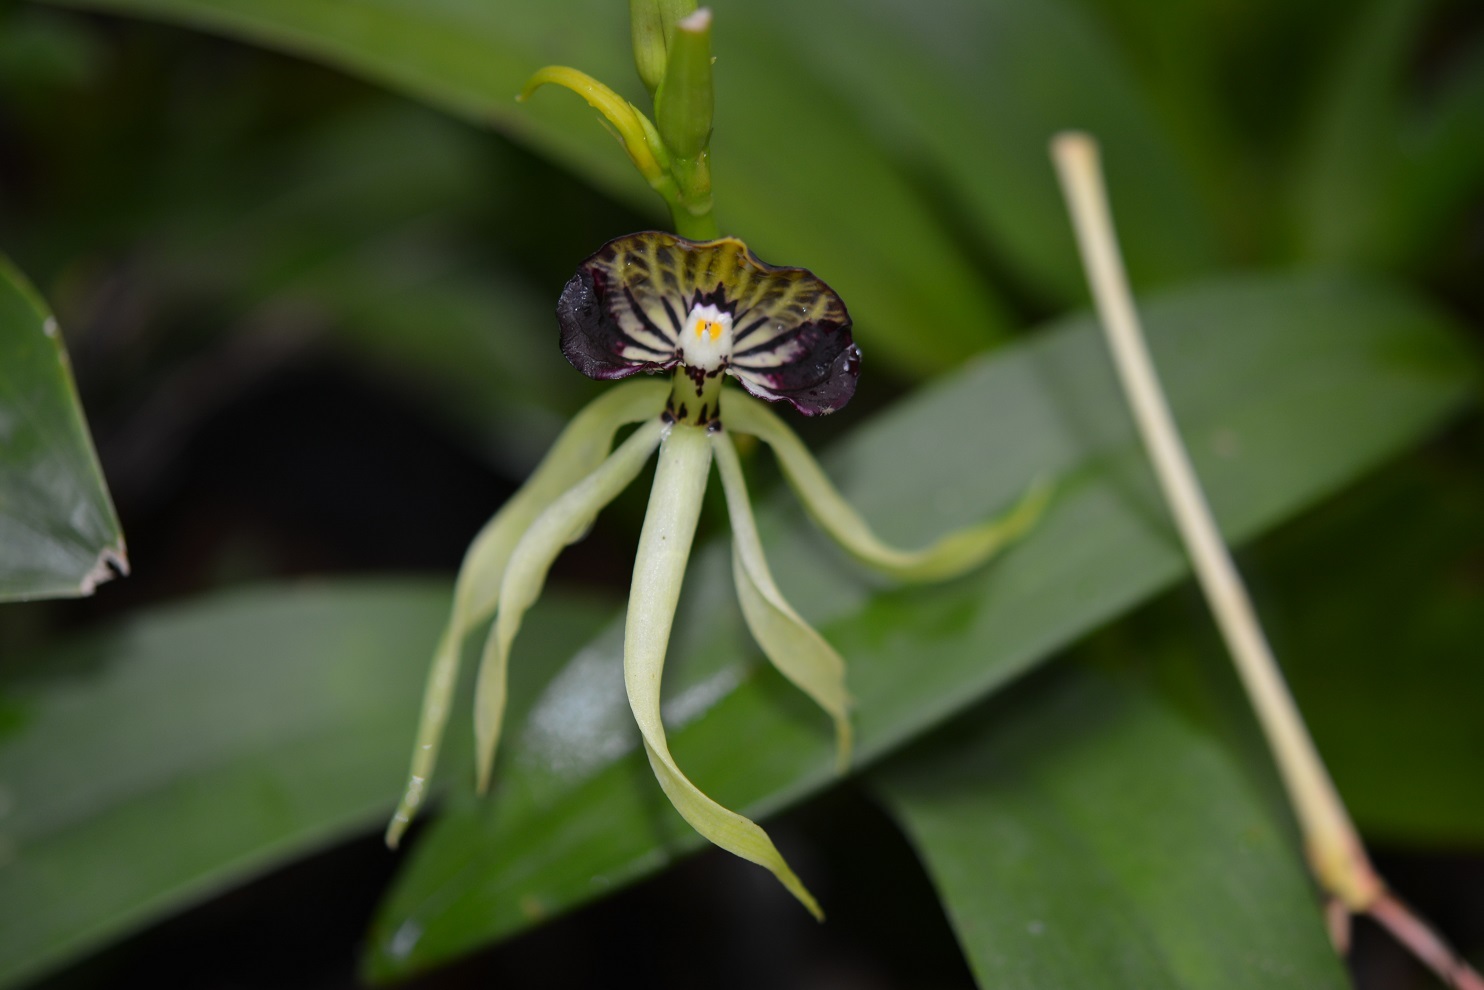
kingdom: Plantae
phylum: Tracheophyta
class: Liliopsida
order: Asparagales
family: Orchidaceae
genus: Prosthechea
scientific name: Prosthechea cochleata
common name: Clamshell orchid
